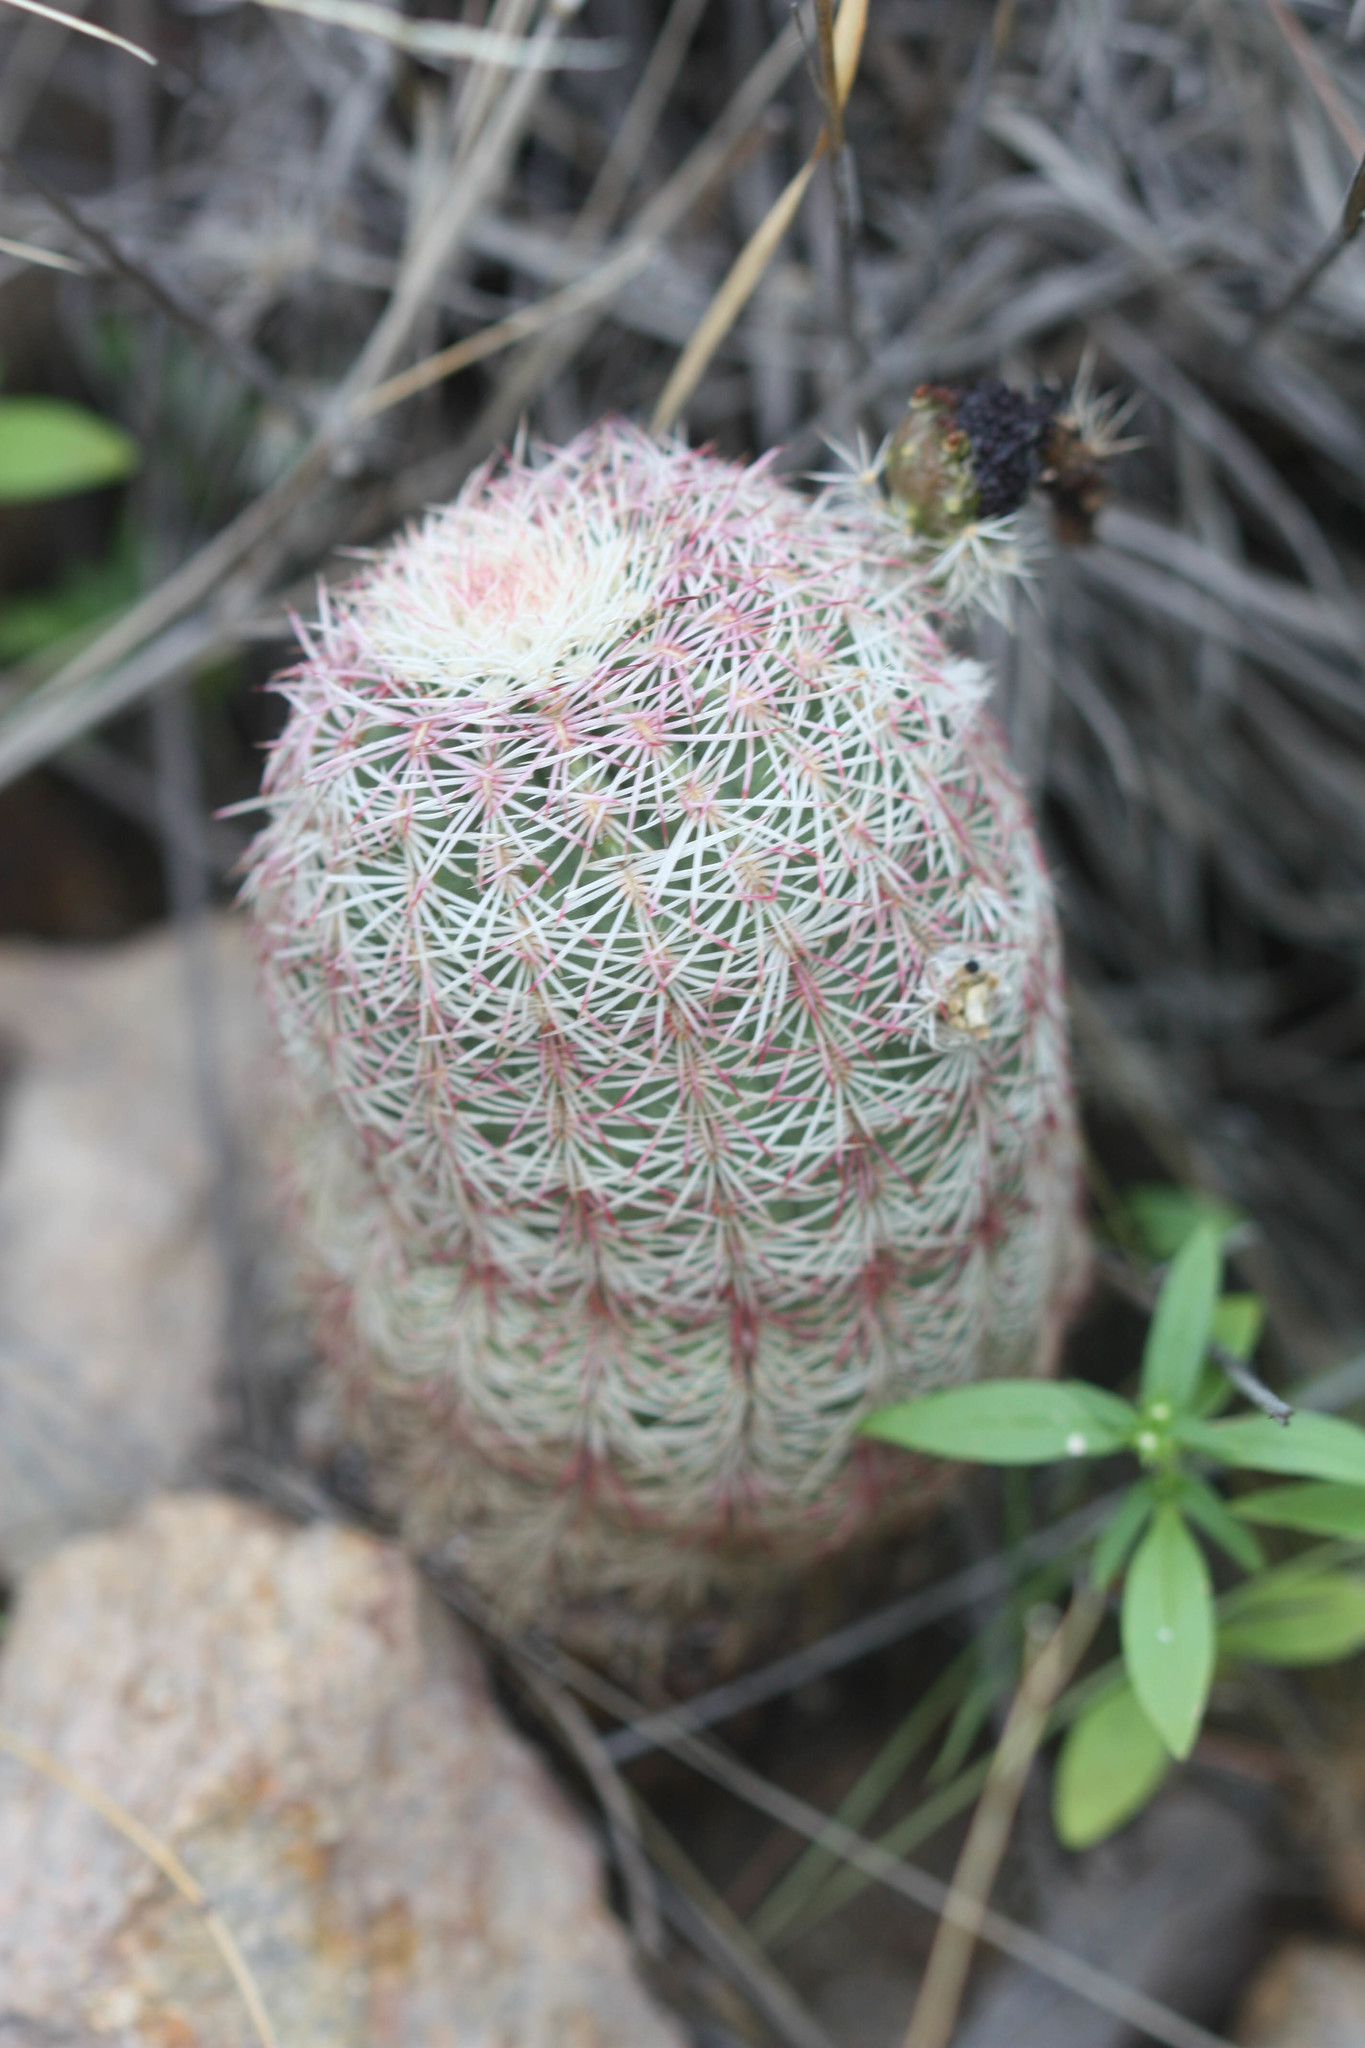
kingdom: Plantae
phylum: Tracheophyta
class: Magnoliopsida
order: Caryophyllales
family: Cactaceae
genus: Echinocereus
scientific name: Echinocereus rigidissimus
